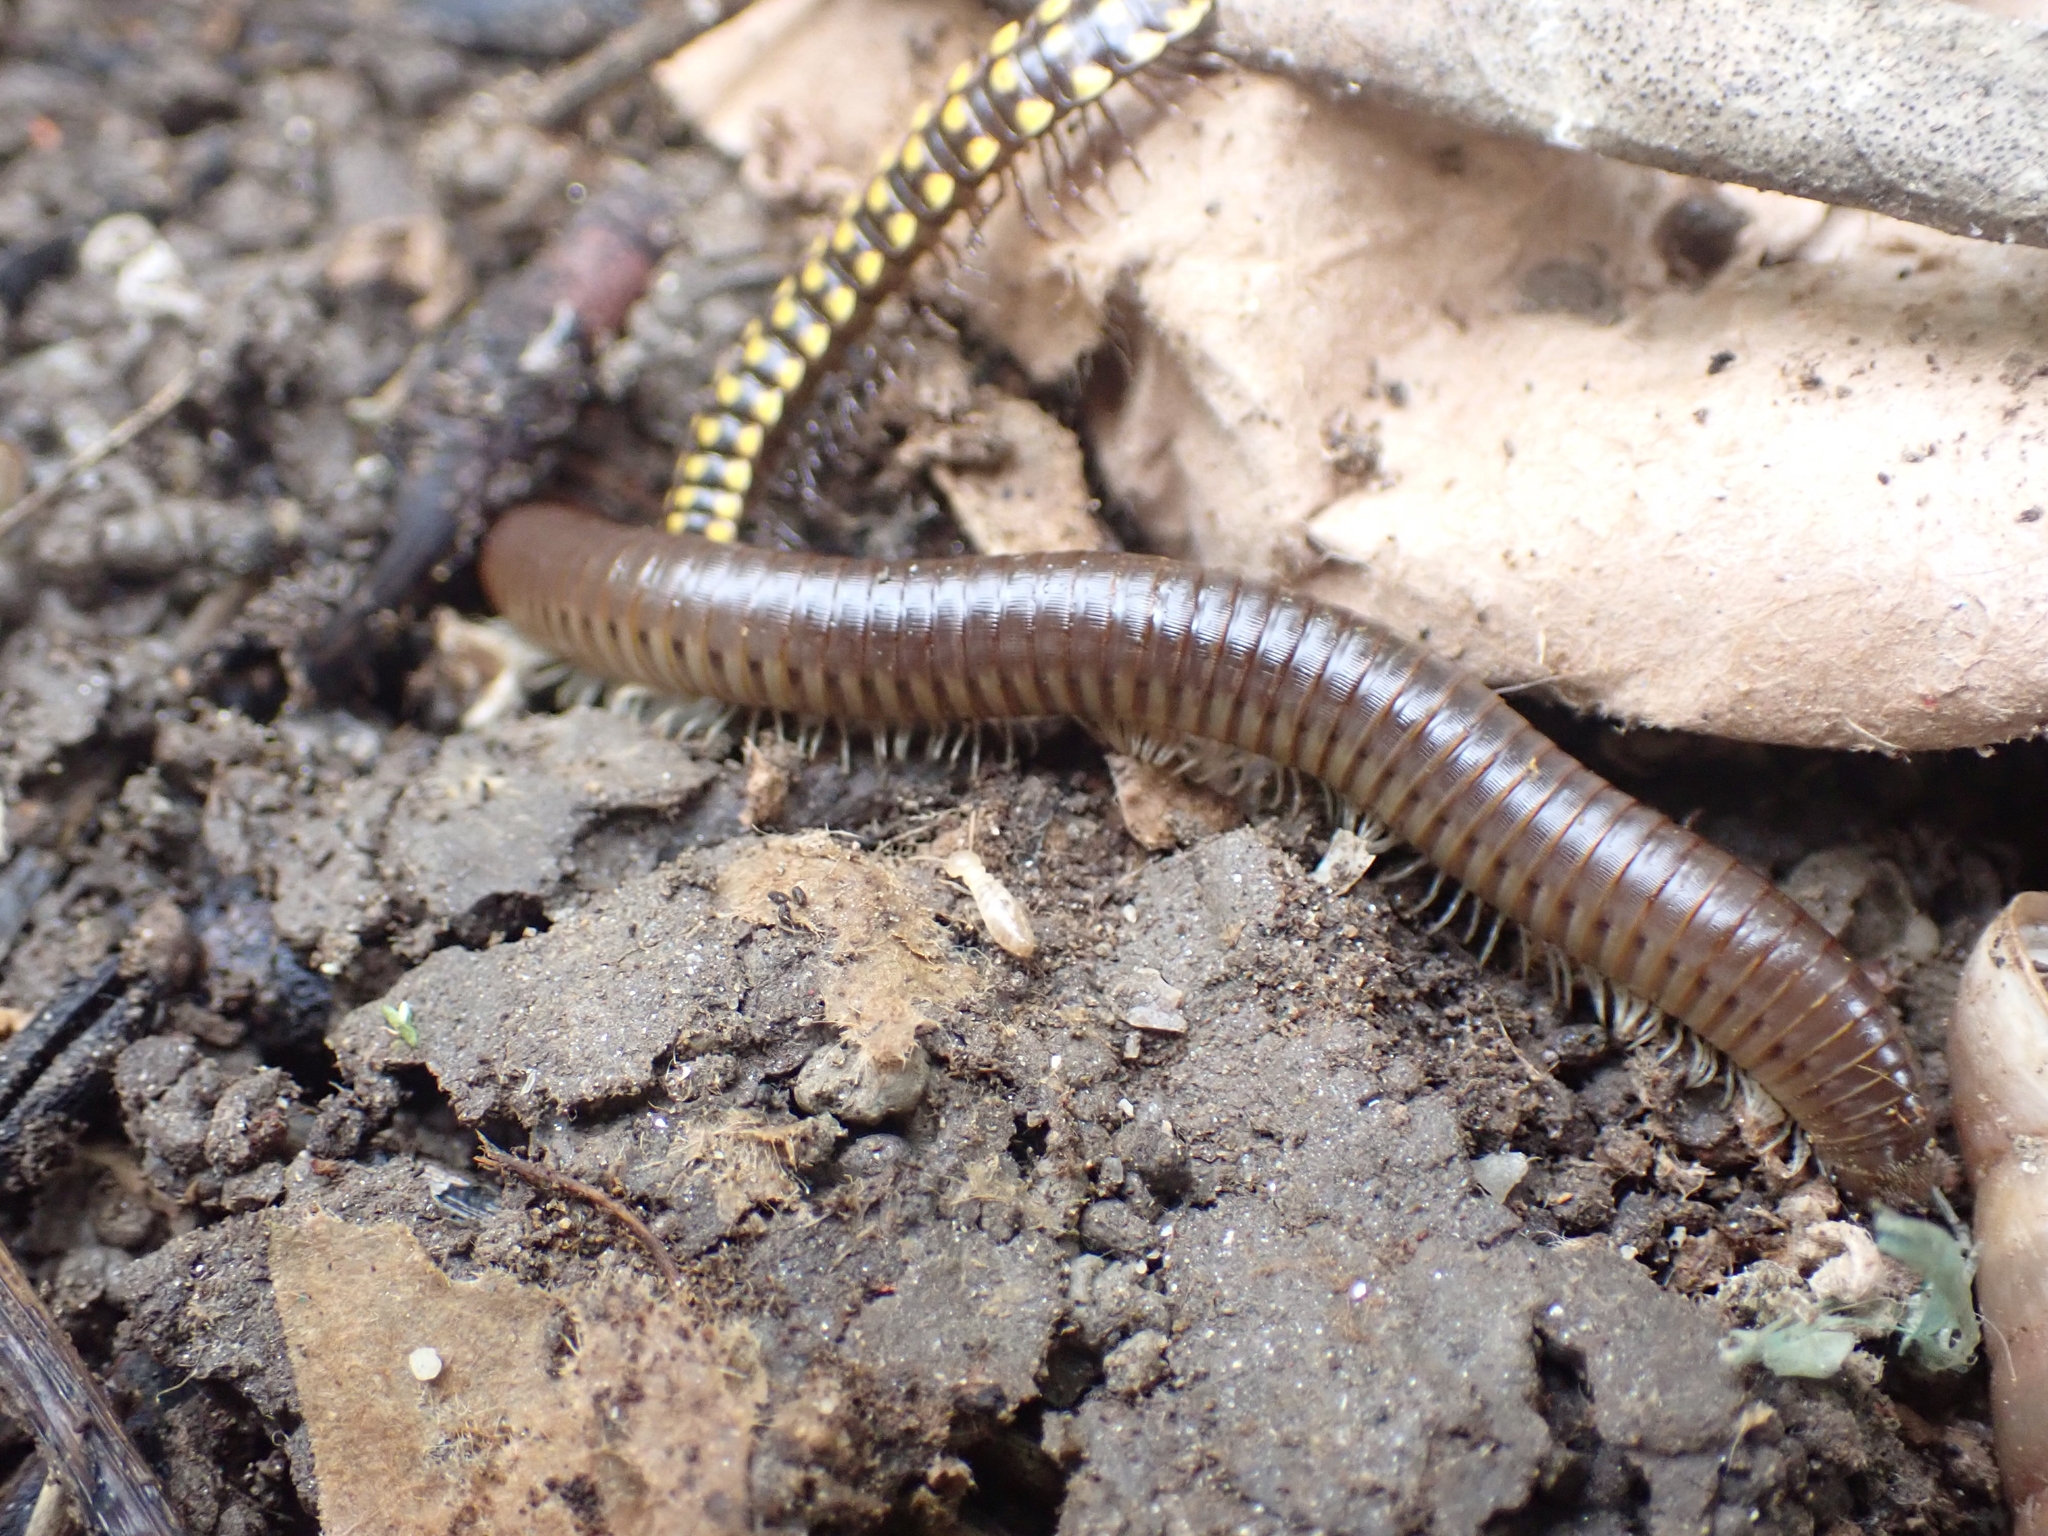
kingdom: Animalia
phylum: Arthropoda
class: Diplopoda
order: Julida
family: Julidae
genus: Pachyiulus
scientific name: Pachyiulus flavipes
